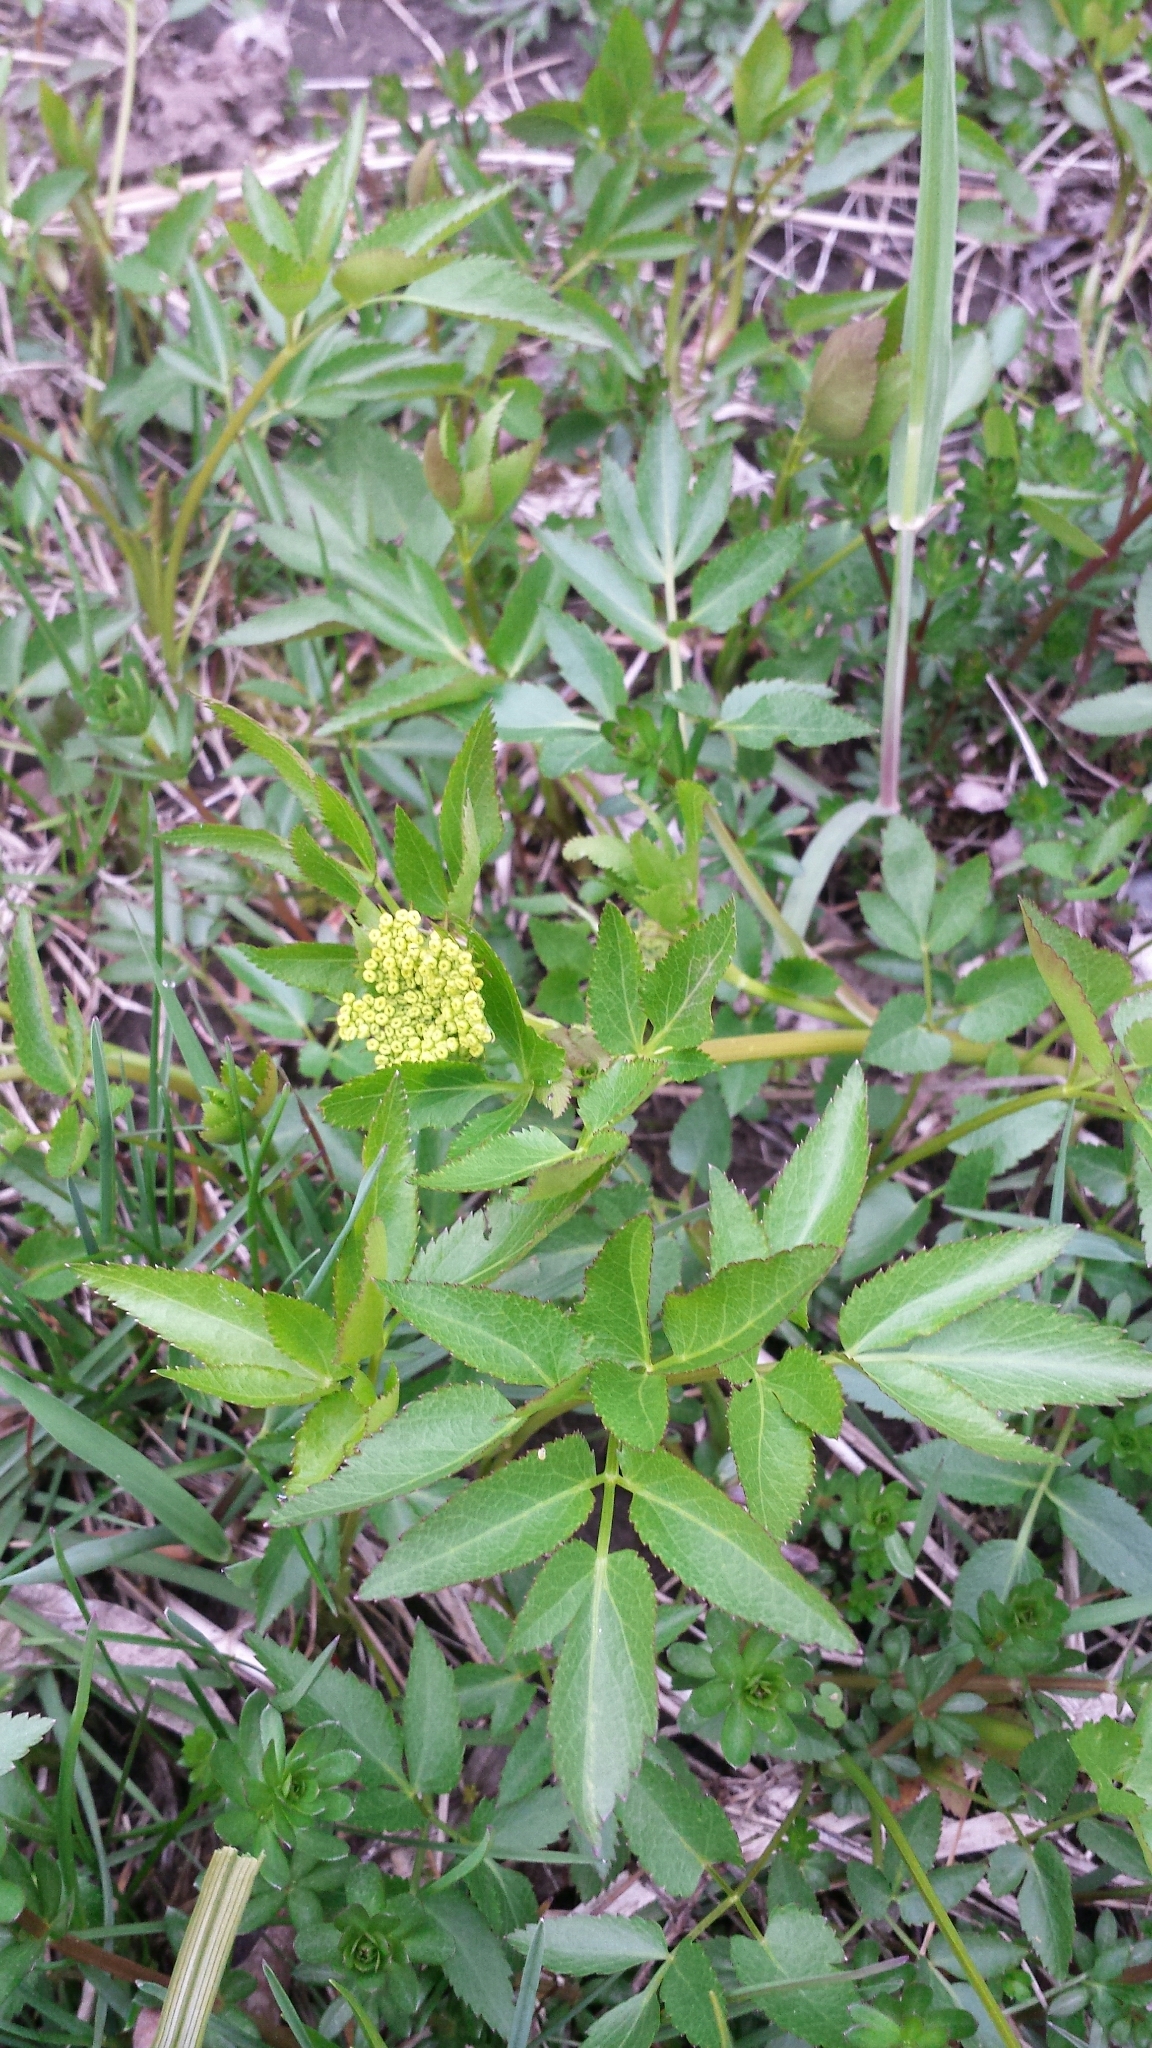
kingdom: Plantae
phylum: Tracheophyta
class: Magnoliopsida
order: Apiales
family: Apiaceae
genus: Zizia
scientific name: Zizia aurea
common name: Golden alexanders
